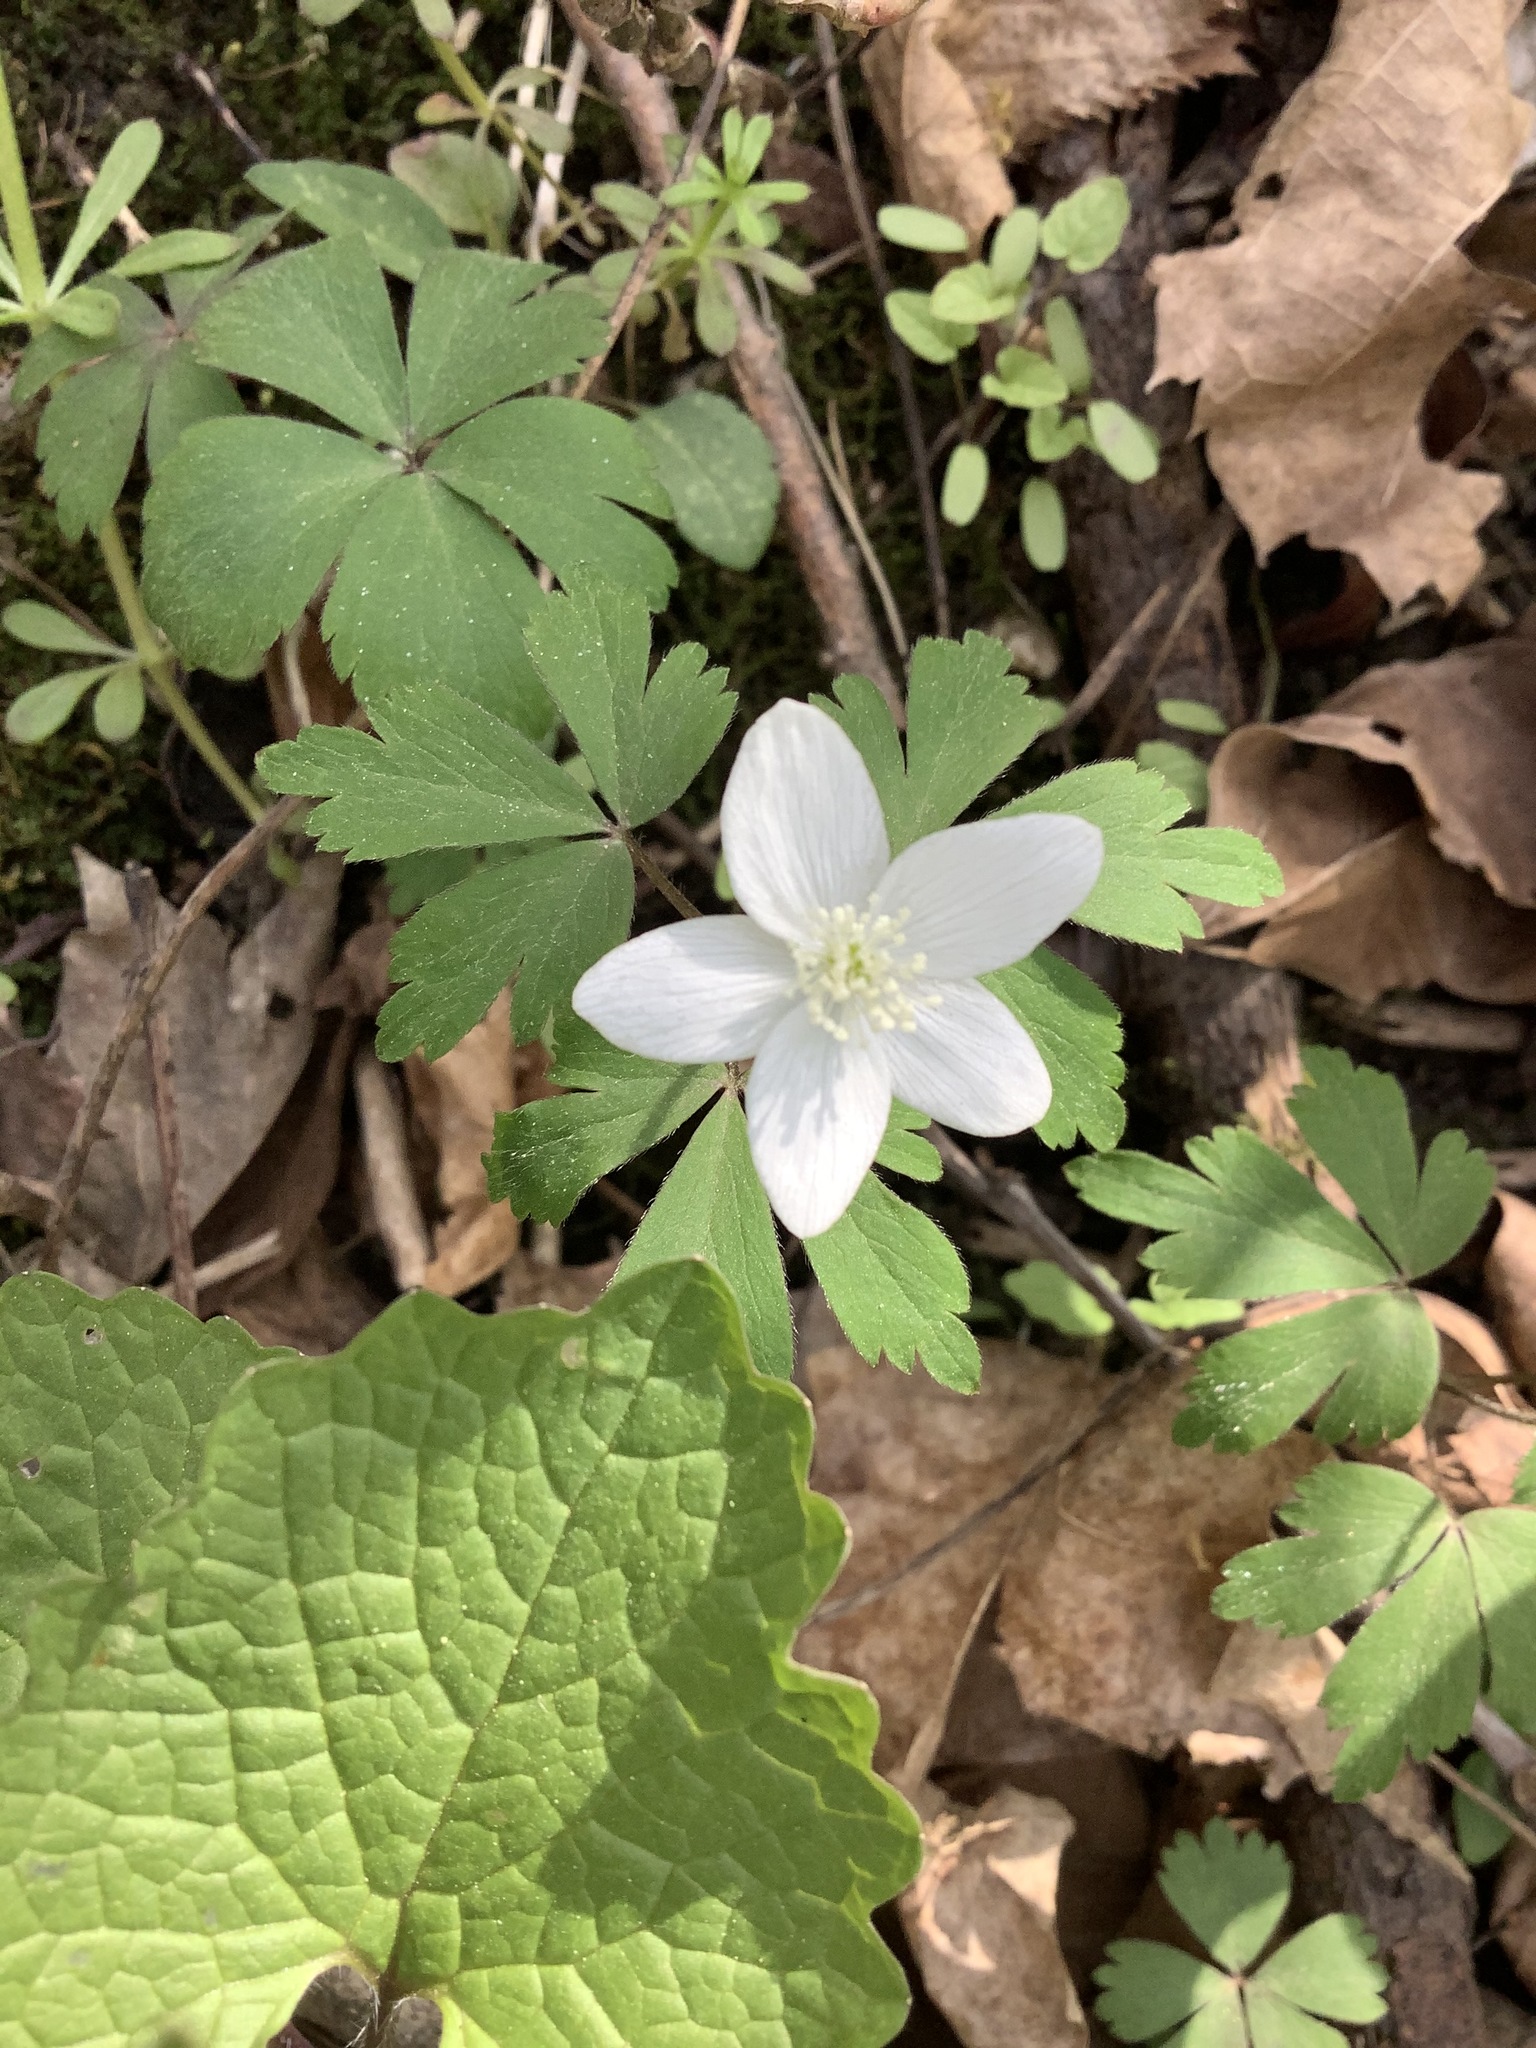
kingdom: Plantae
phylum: Tracheophyta
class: Magnoliopsida
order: Ranunculales
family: Ranunculaceae
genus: Anemone
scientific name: Anemone quinquefolia
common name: Wood anemone
